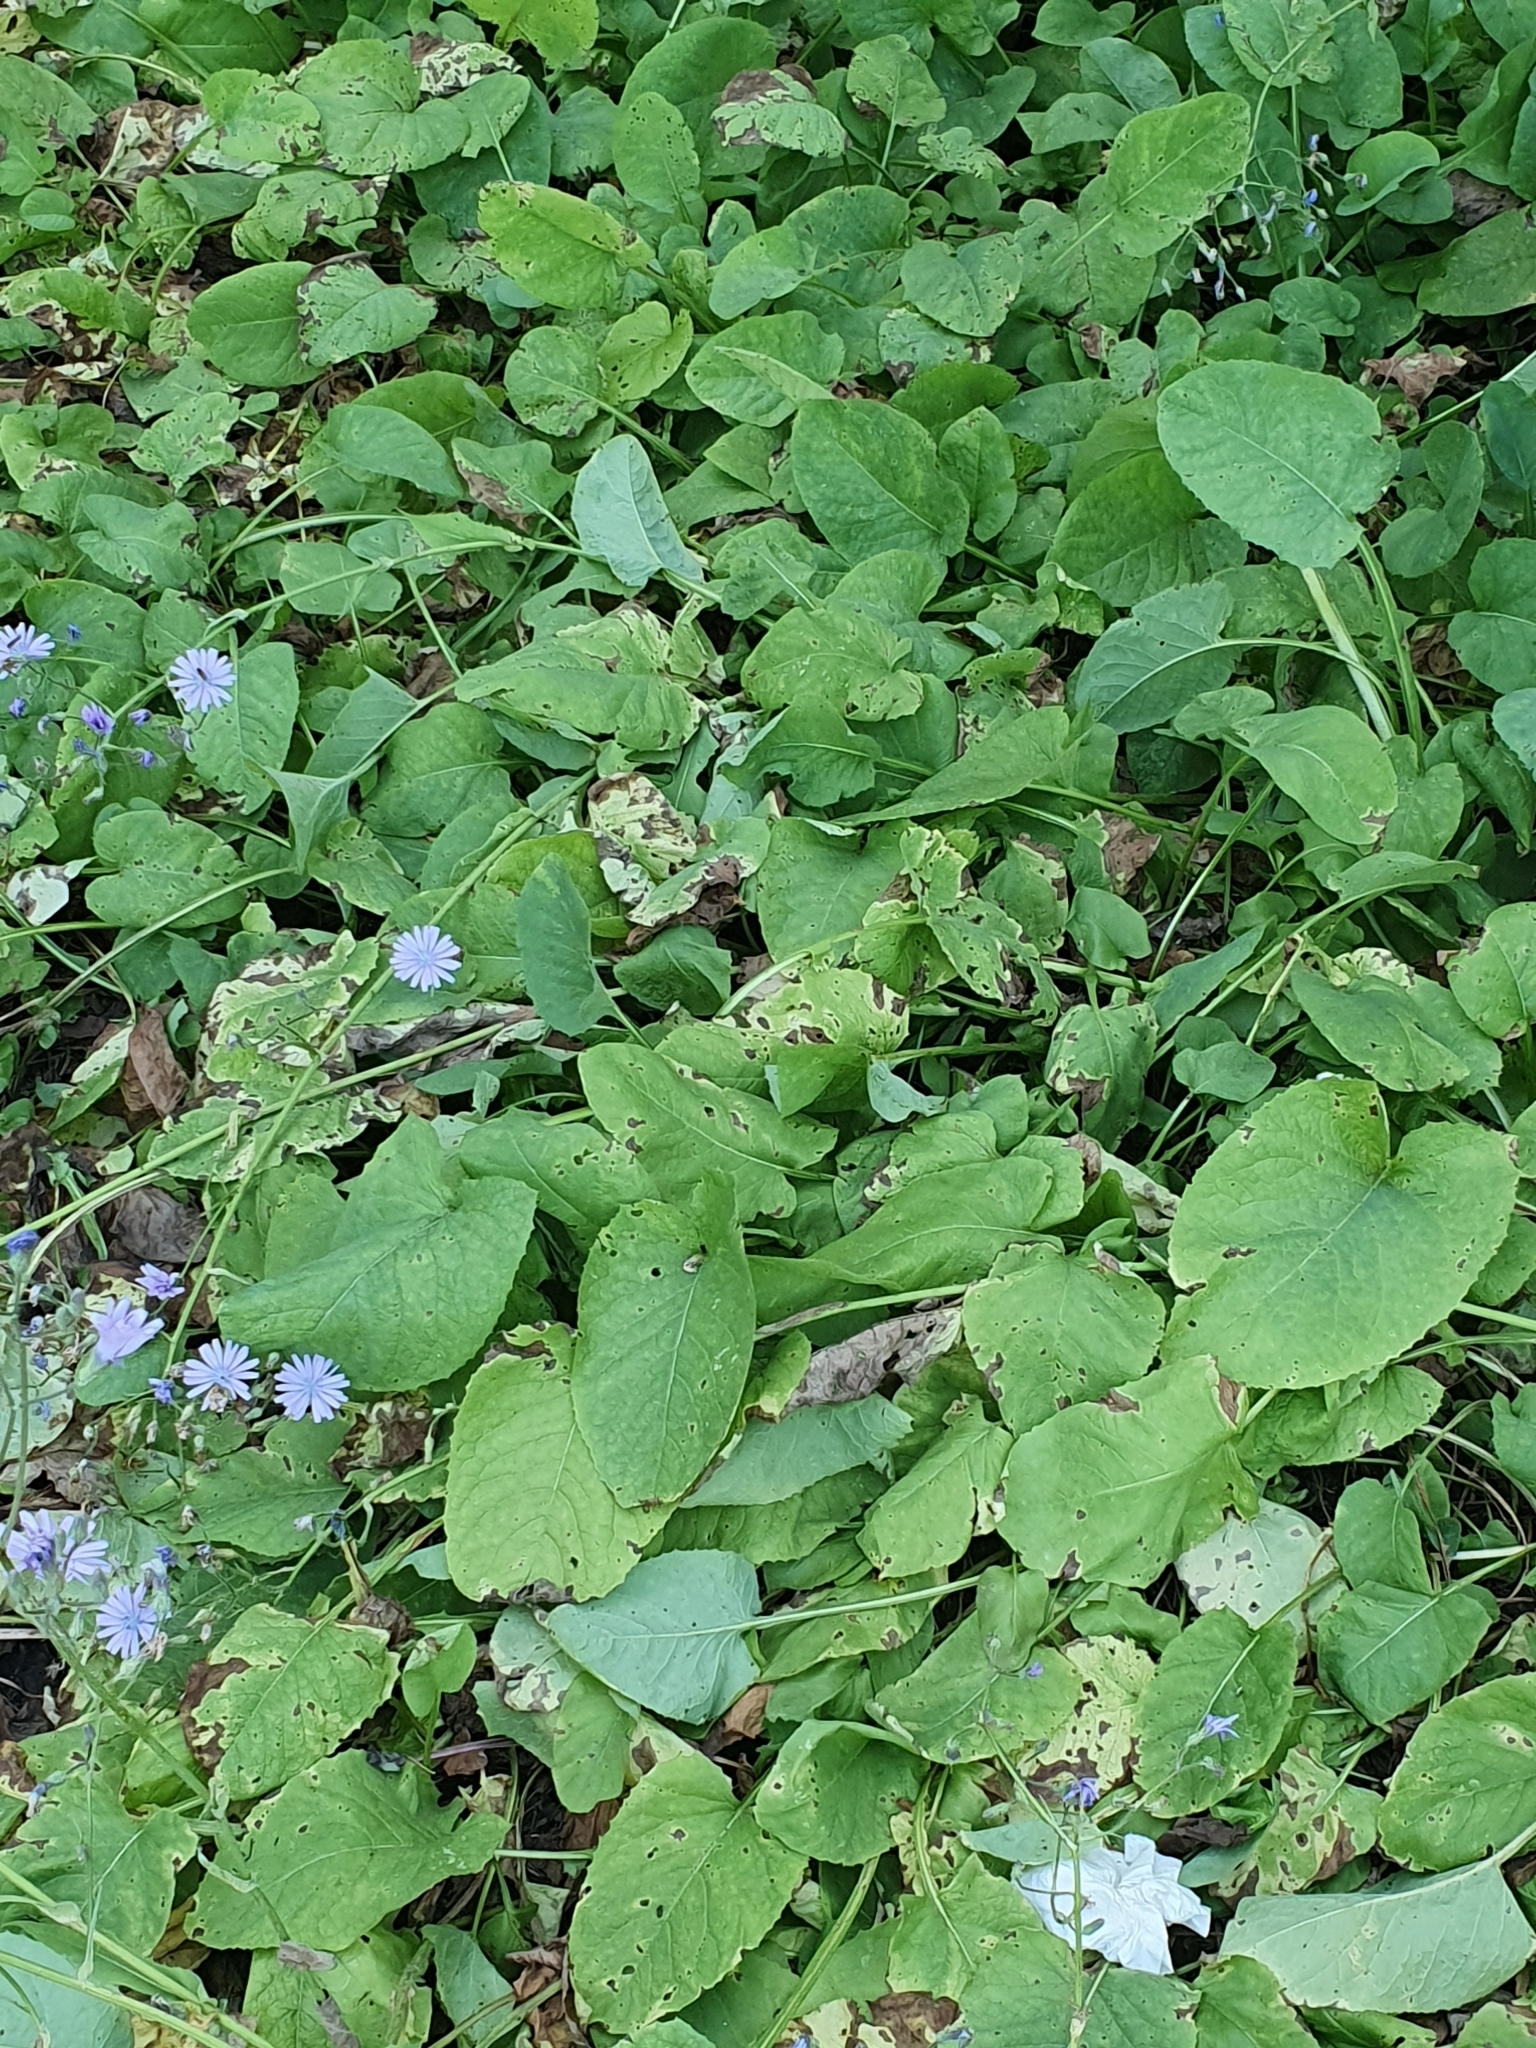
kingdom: Plantae
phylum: Tracheophyta
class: Magnoliopsida
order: Asterales
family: Asteraceae
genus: Lactuca
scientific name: Lactuca macrophylla
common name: Common blue-sow-thistle
